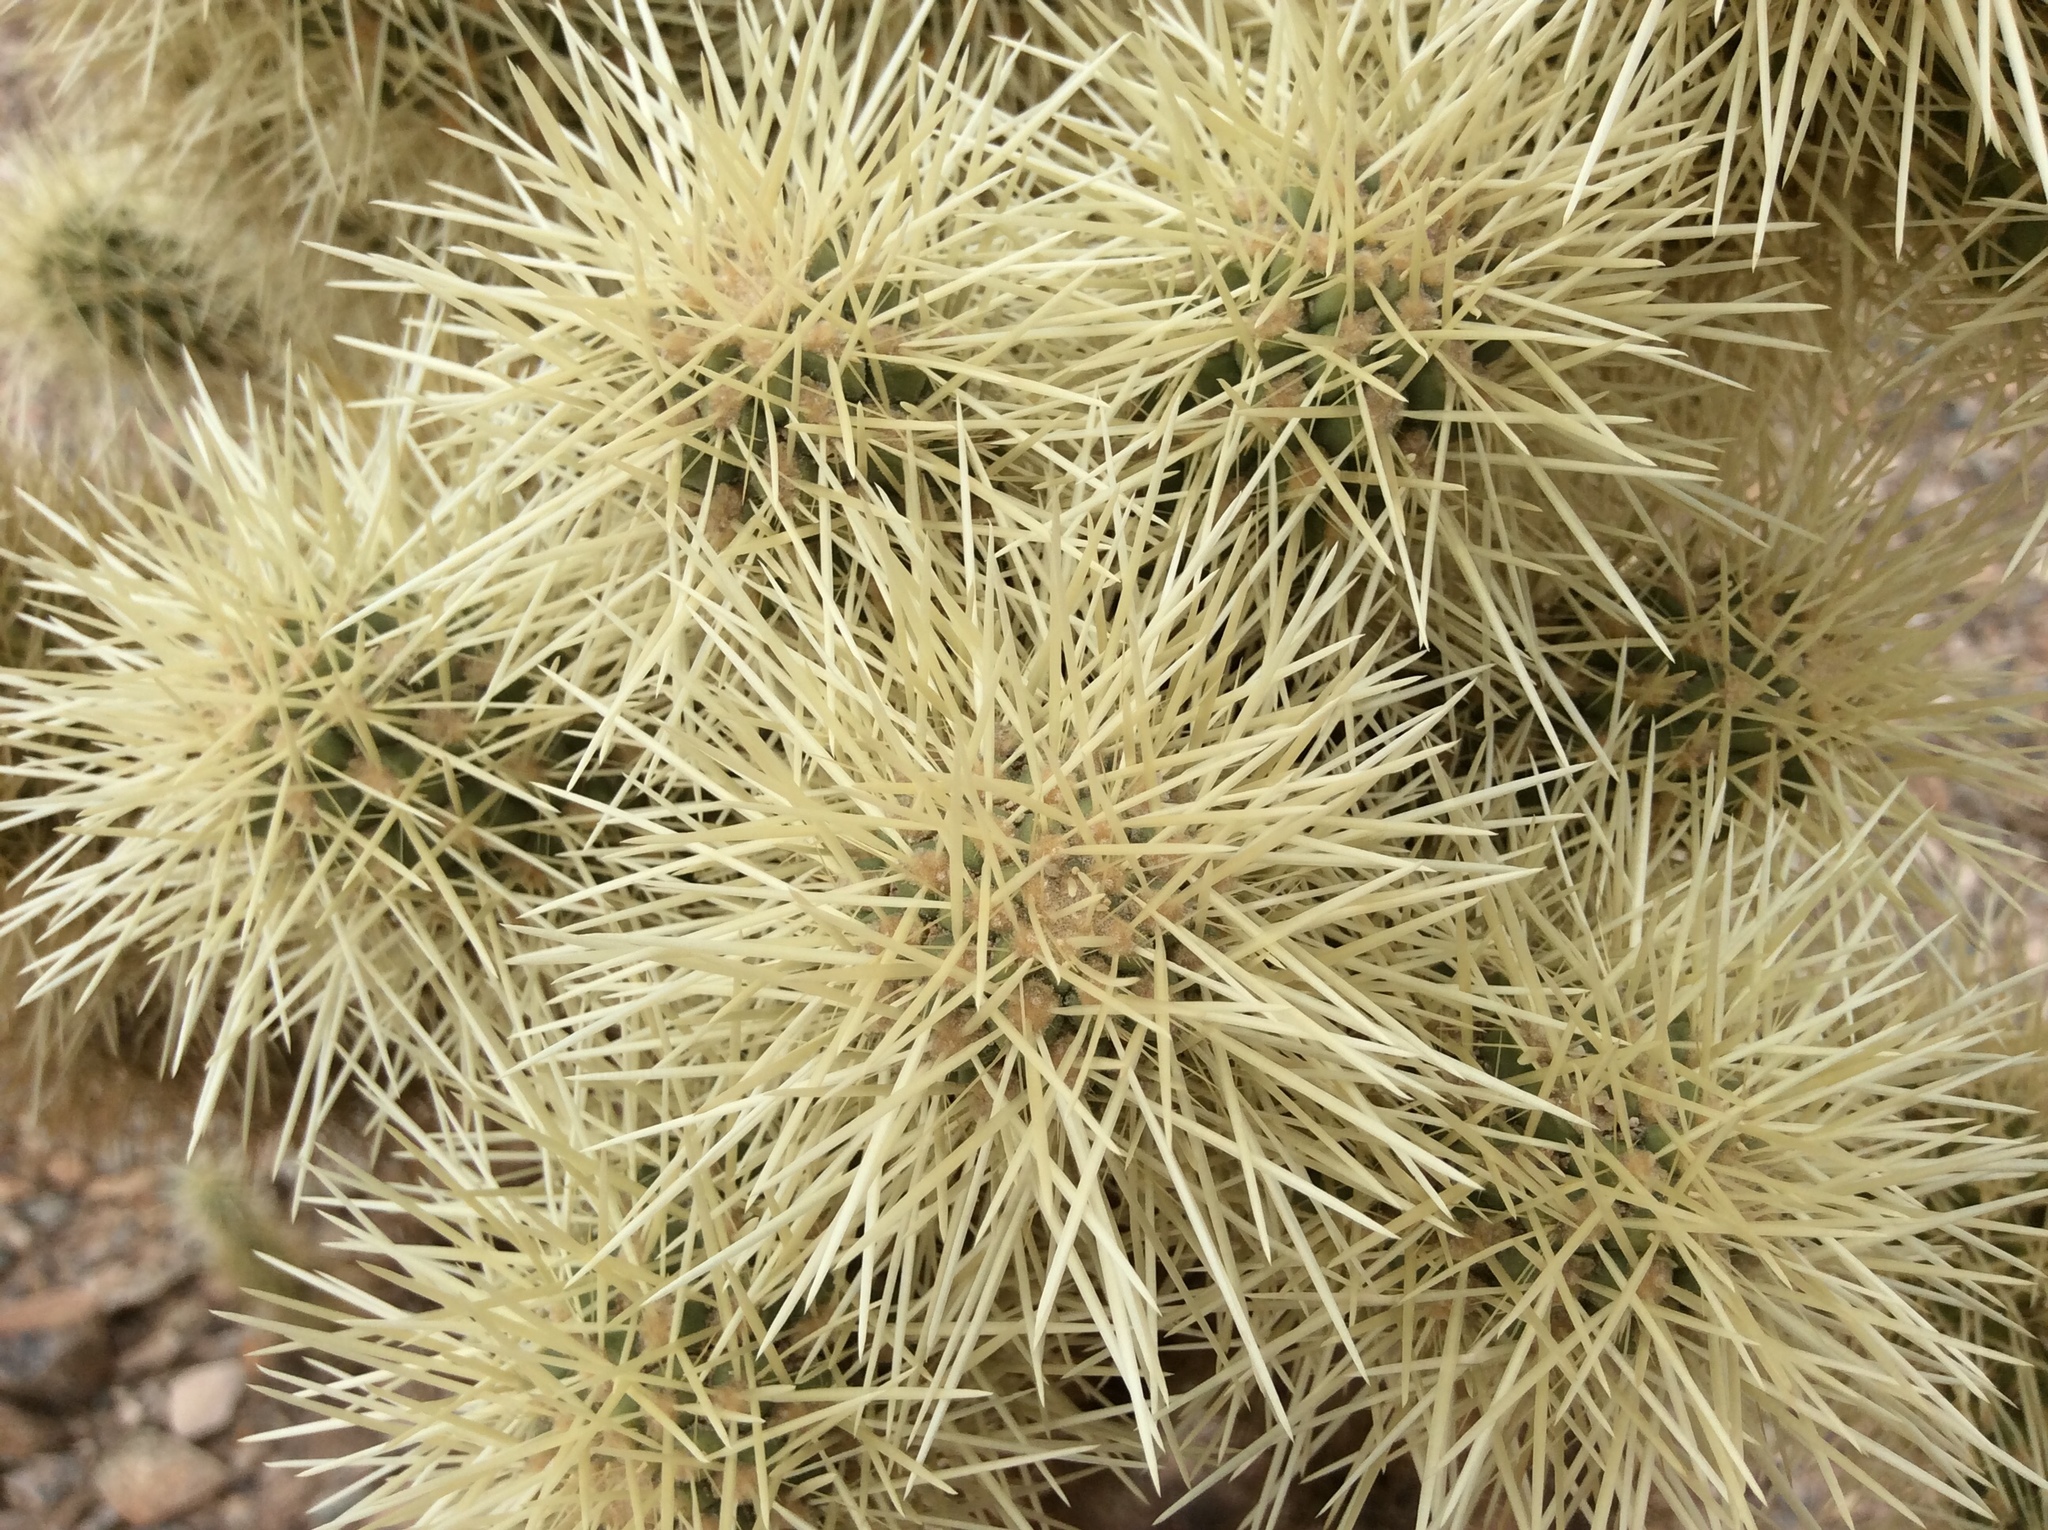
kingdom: Plantae
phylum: Tracheophyta
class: Magnoliopsida
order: Caryophyllales
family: Cactaceae
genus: Cylindropuntia
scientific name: Cylindropuntia fosbergii
